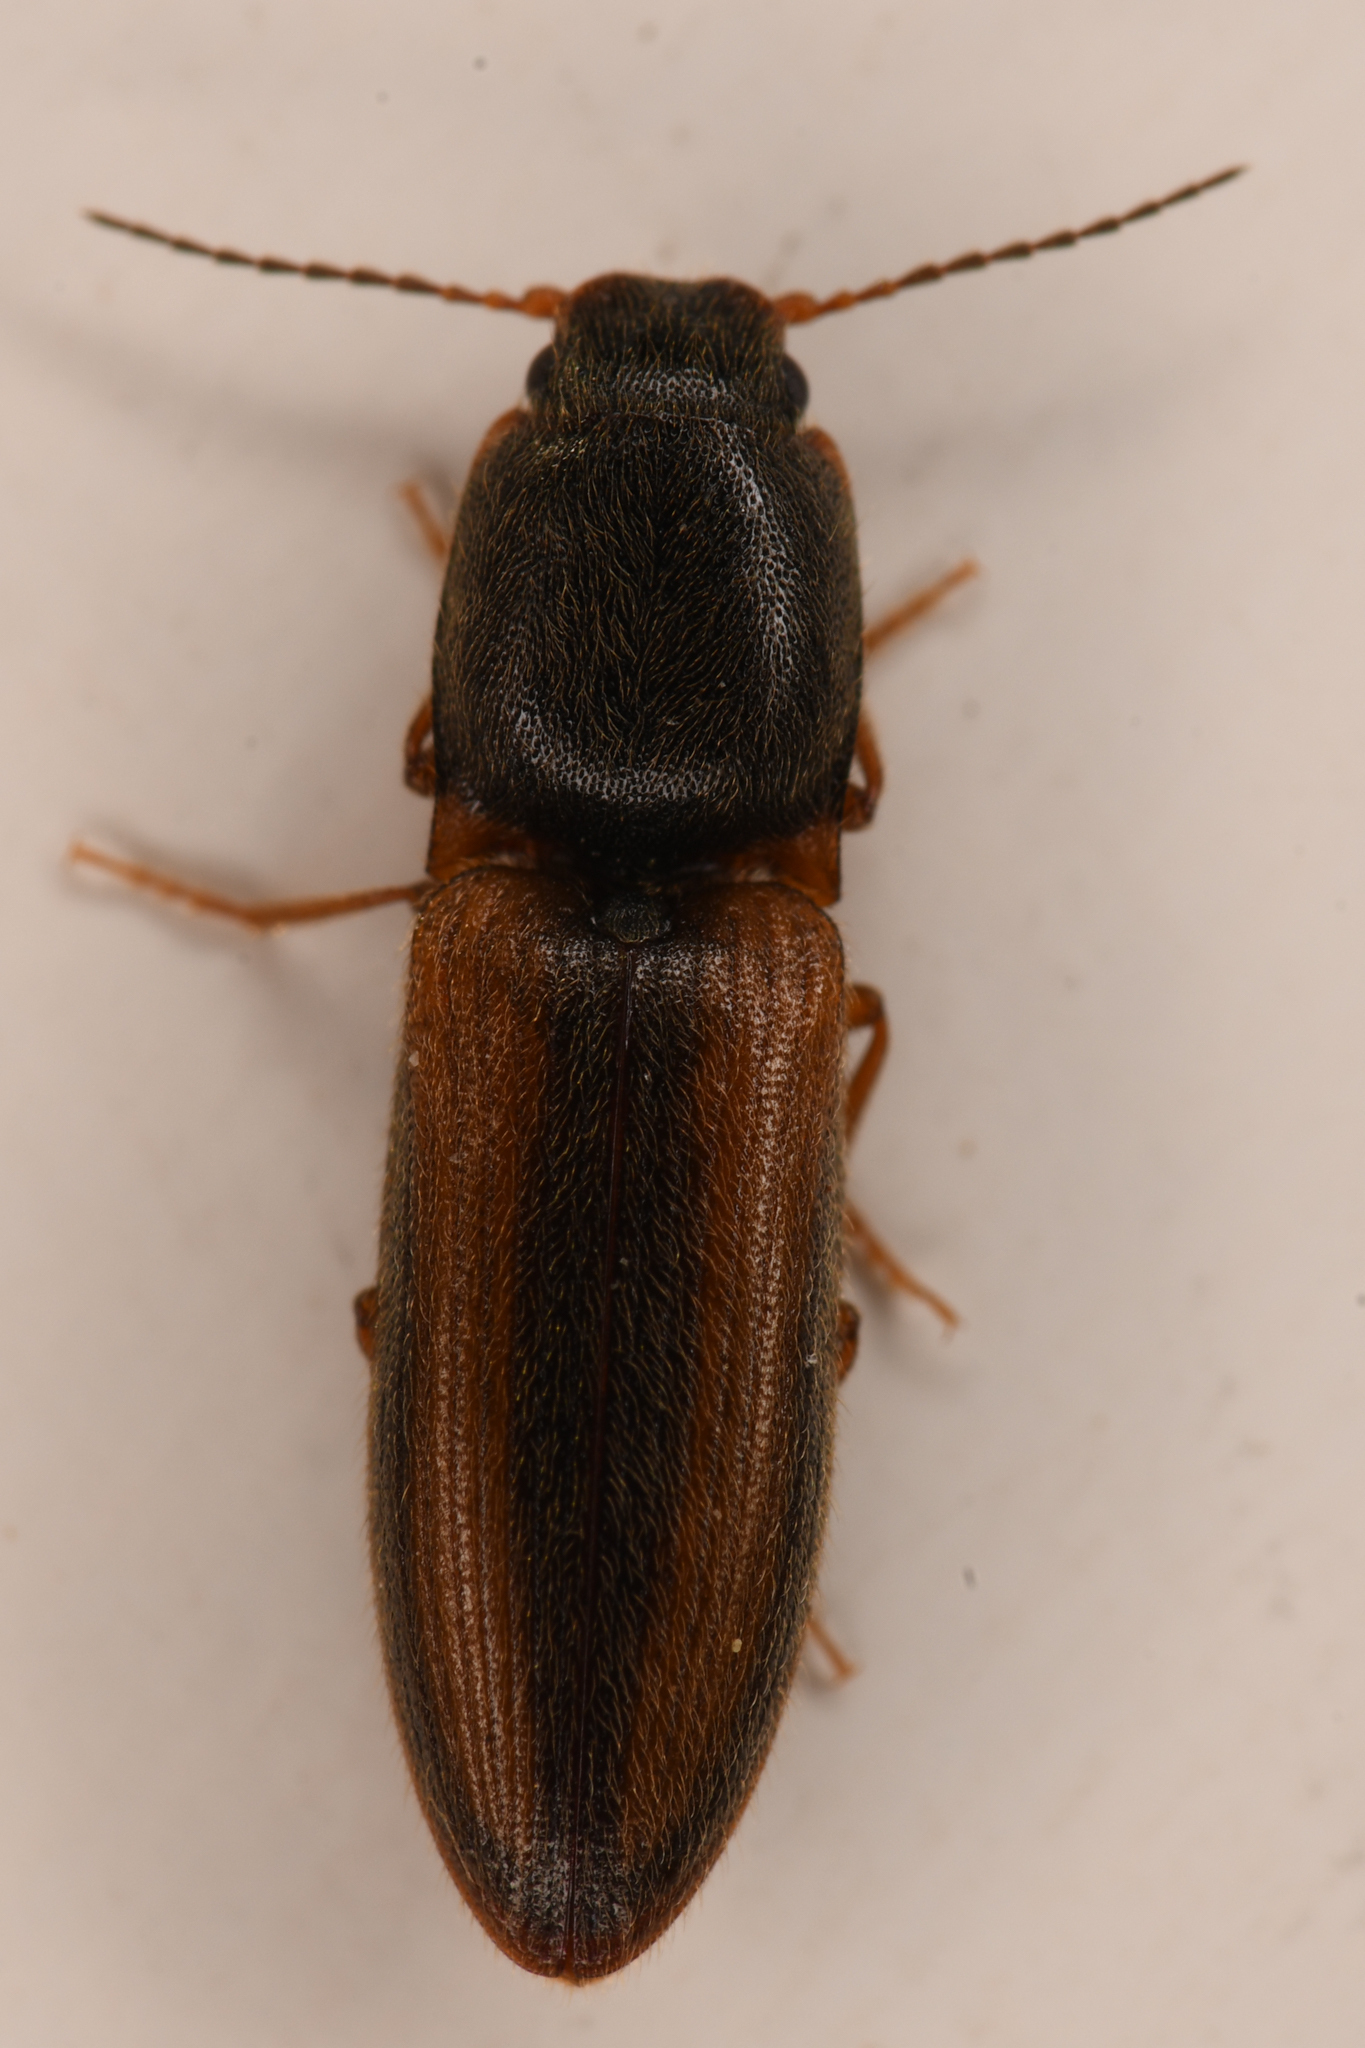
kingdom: Animalia
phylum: Arthropoda
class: Insecta
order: Coleoptera
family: Elateridae
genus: Athous
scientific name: Athous imitans
